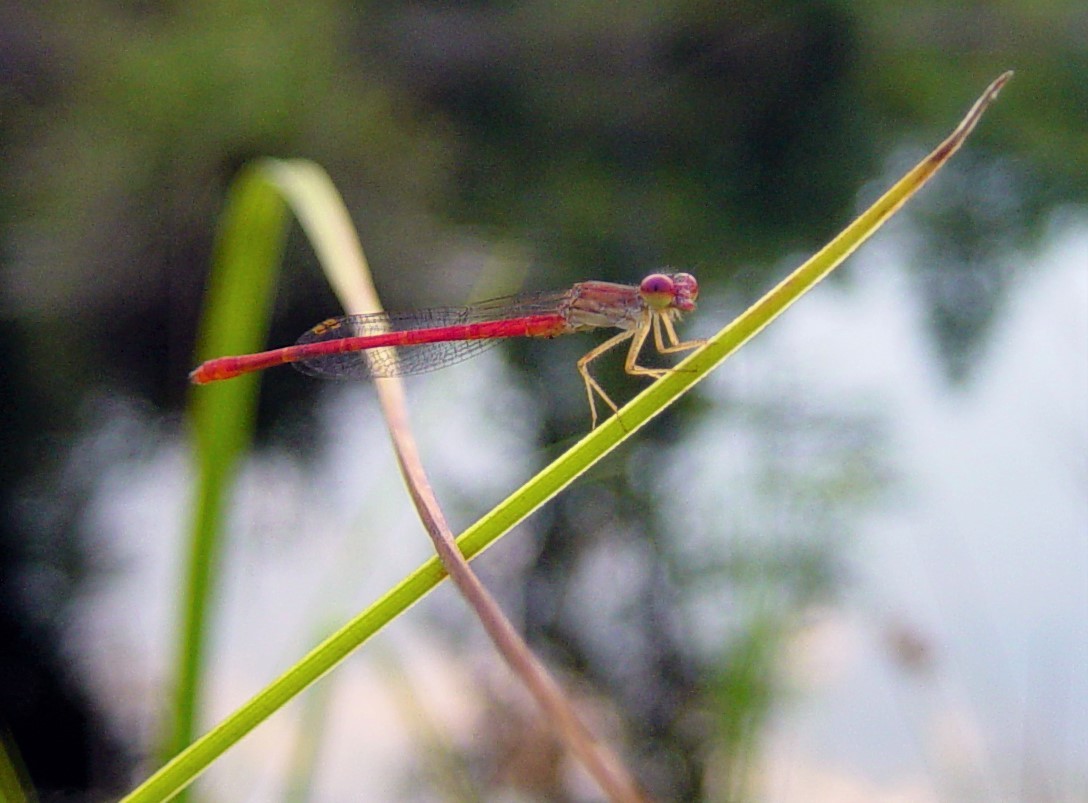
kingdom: Animalia
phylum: Arthropoda
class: Insecta
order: Odonata
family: Coenagrionidae
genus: Telebasis
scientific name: Telebasis byersi
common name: Duckweed firetail
